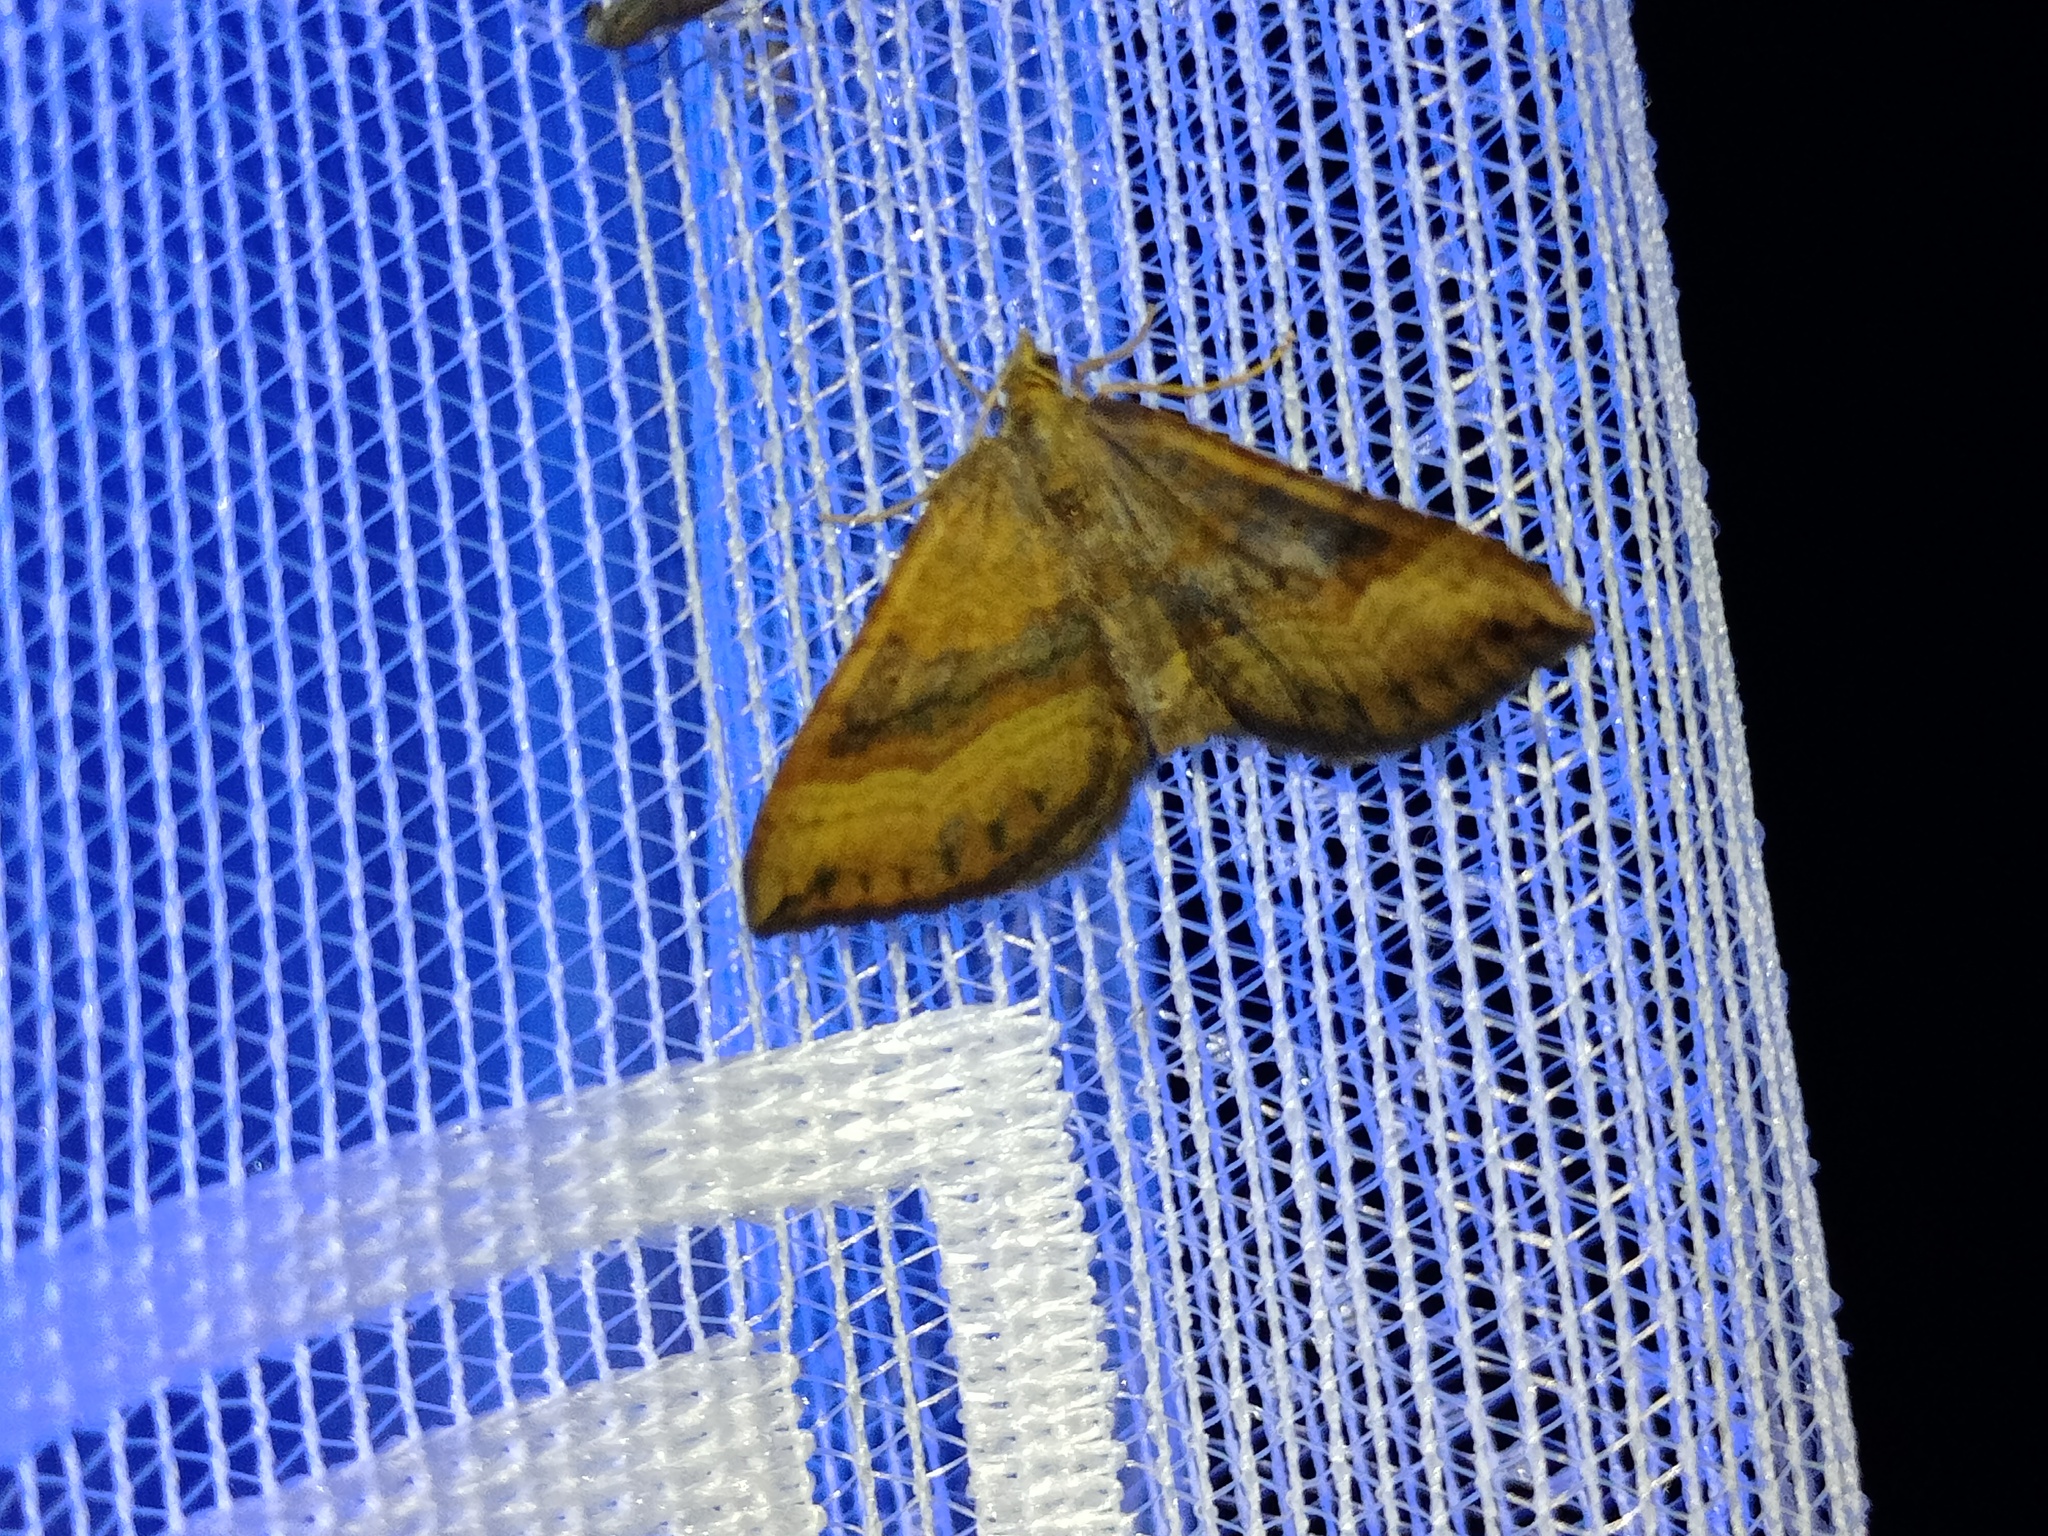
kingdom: Animalia
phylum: Arthropoda
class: Insecta
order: Lepidoptera
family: Geometridae
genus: Scotopteryx
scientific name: Scotopteryx chenopodiata
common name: Shaded broad-bar
